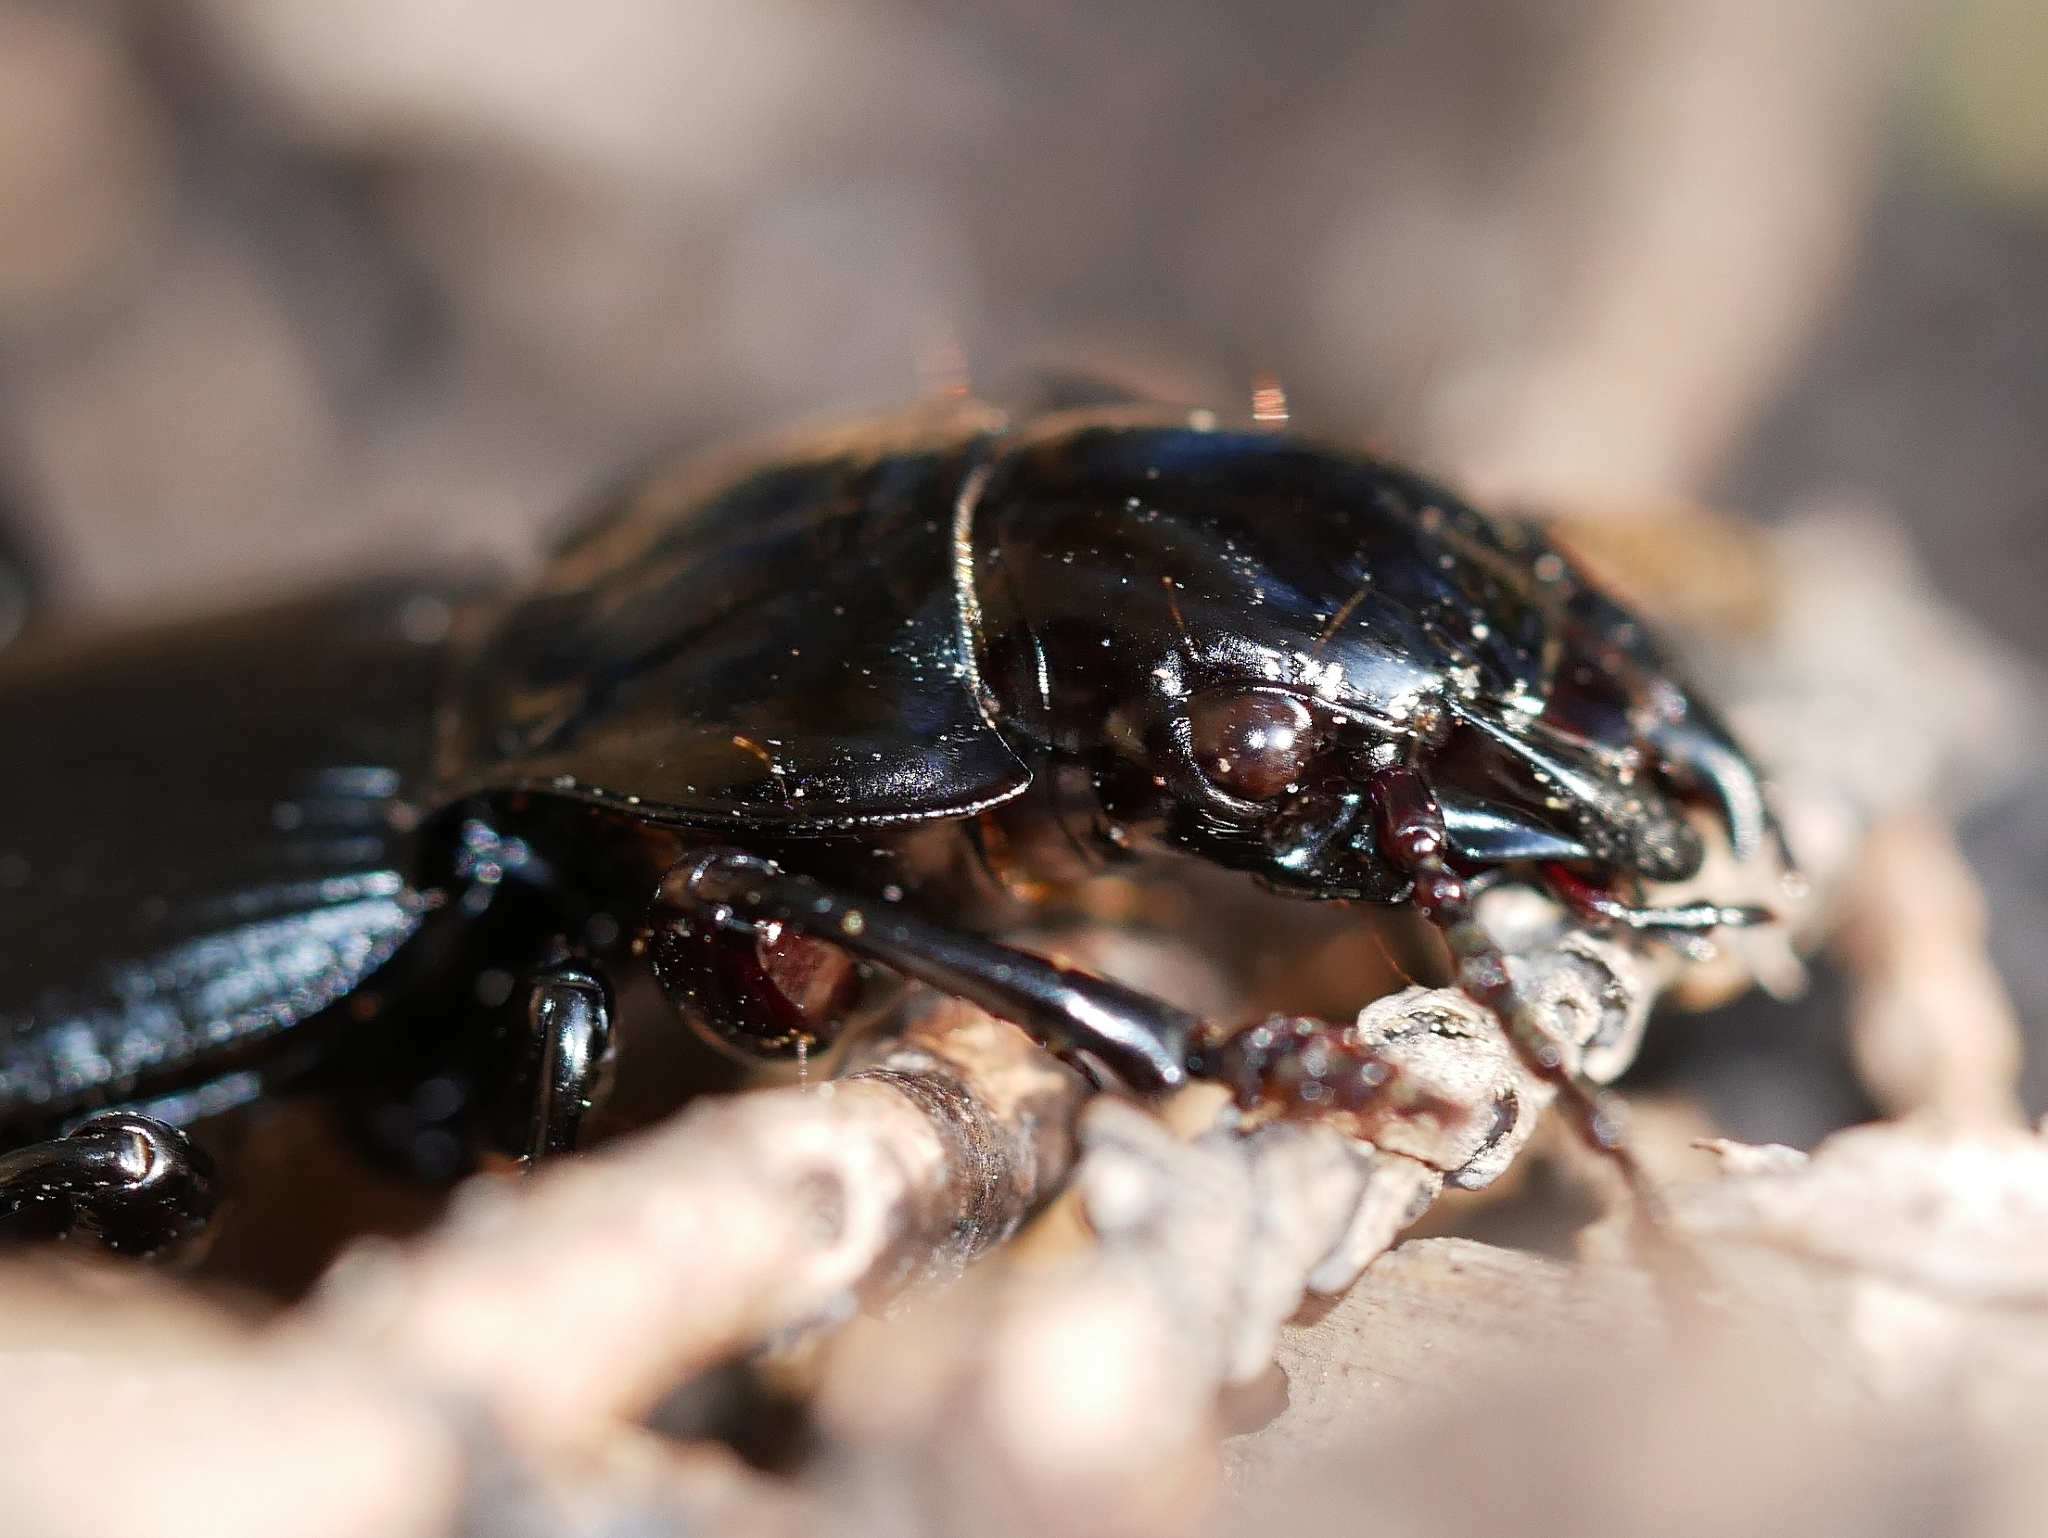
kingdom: Animalia
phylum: Arthropoda
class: Insecta
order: Coleoptera
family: Carabidae
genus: Pterostichus
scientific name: Pterostichus lama
